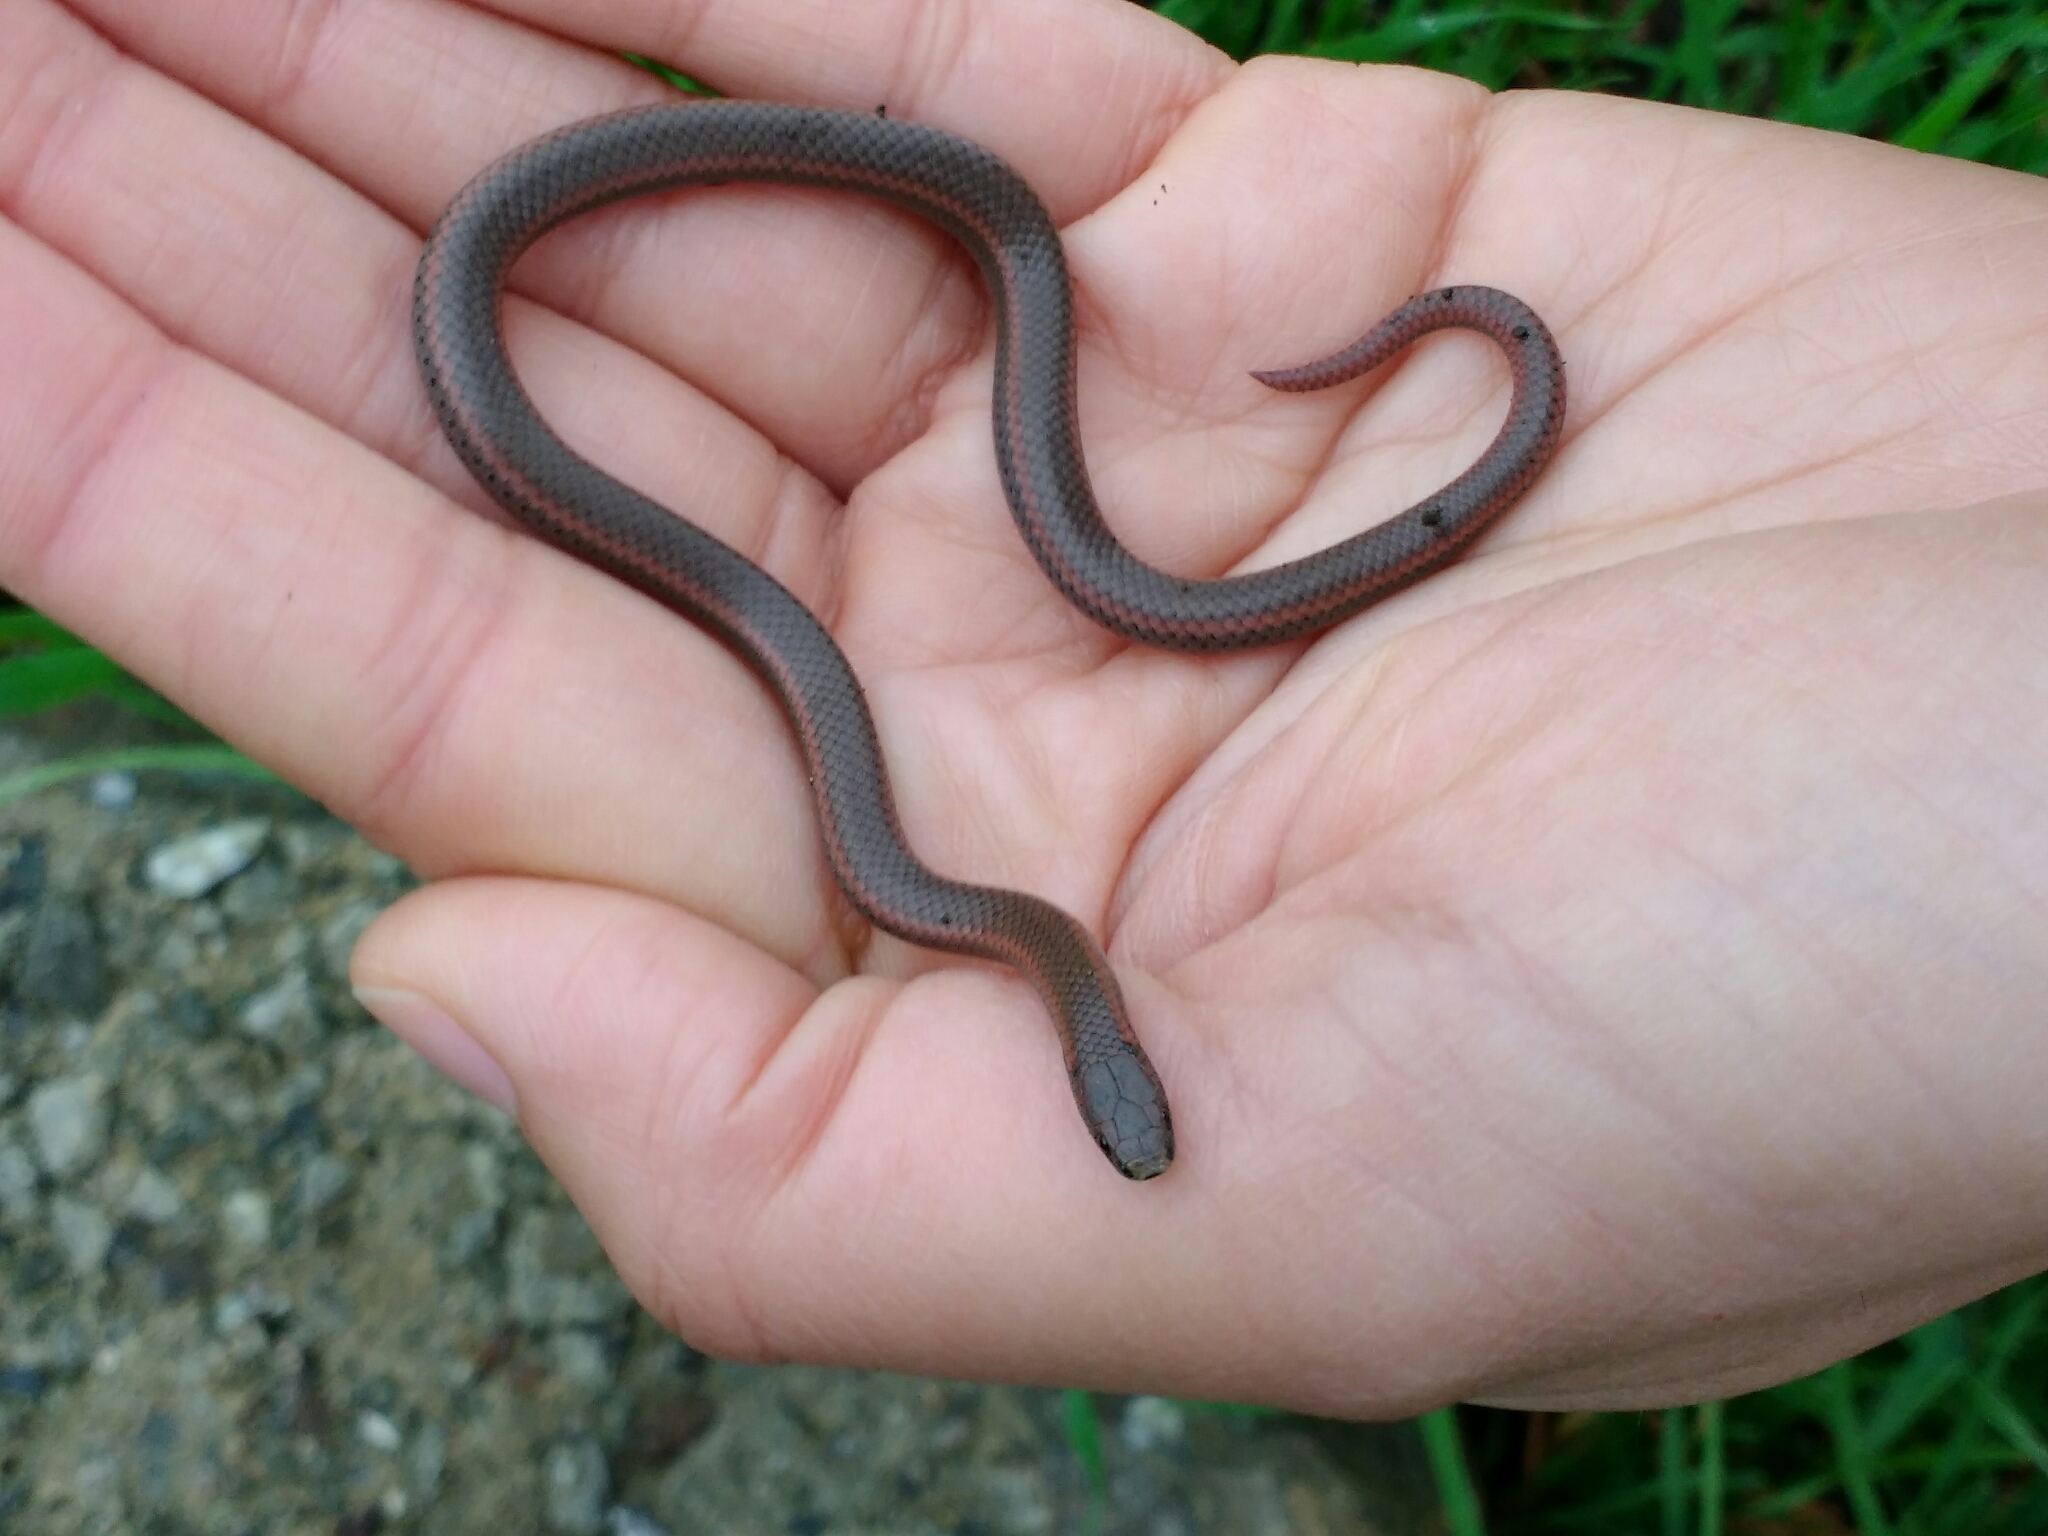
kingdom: Animalia
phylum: Chordata
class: Squamata
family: Colubridae
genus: Contia
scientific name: Contia tenuis
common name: Sharptail snake
